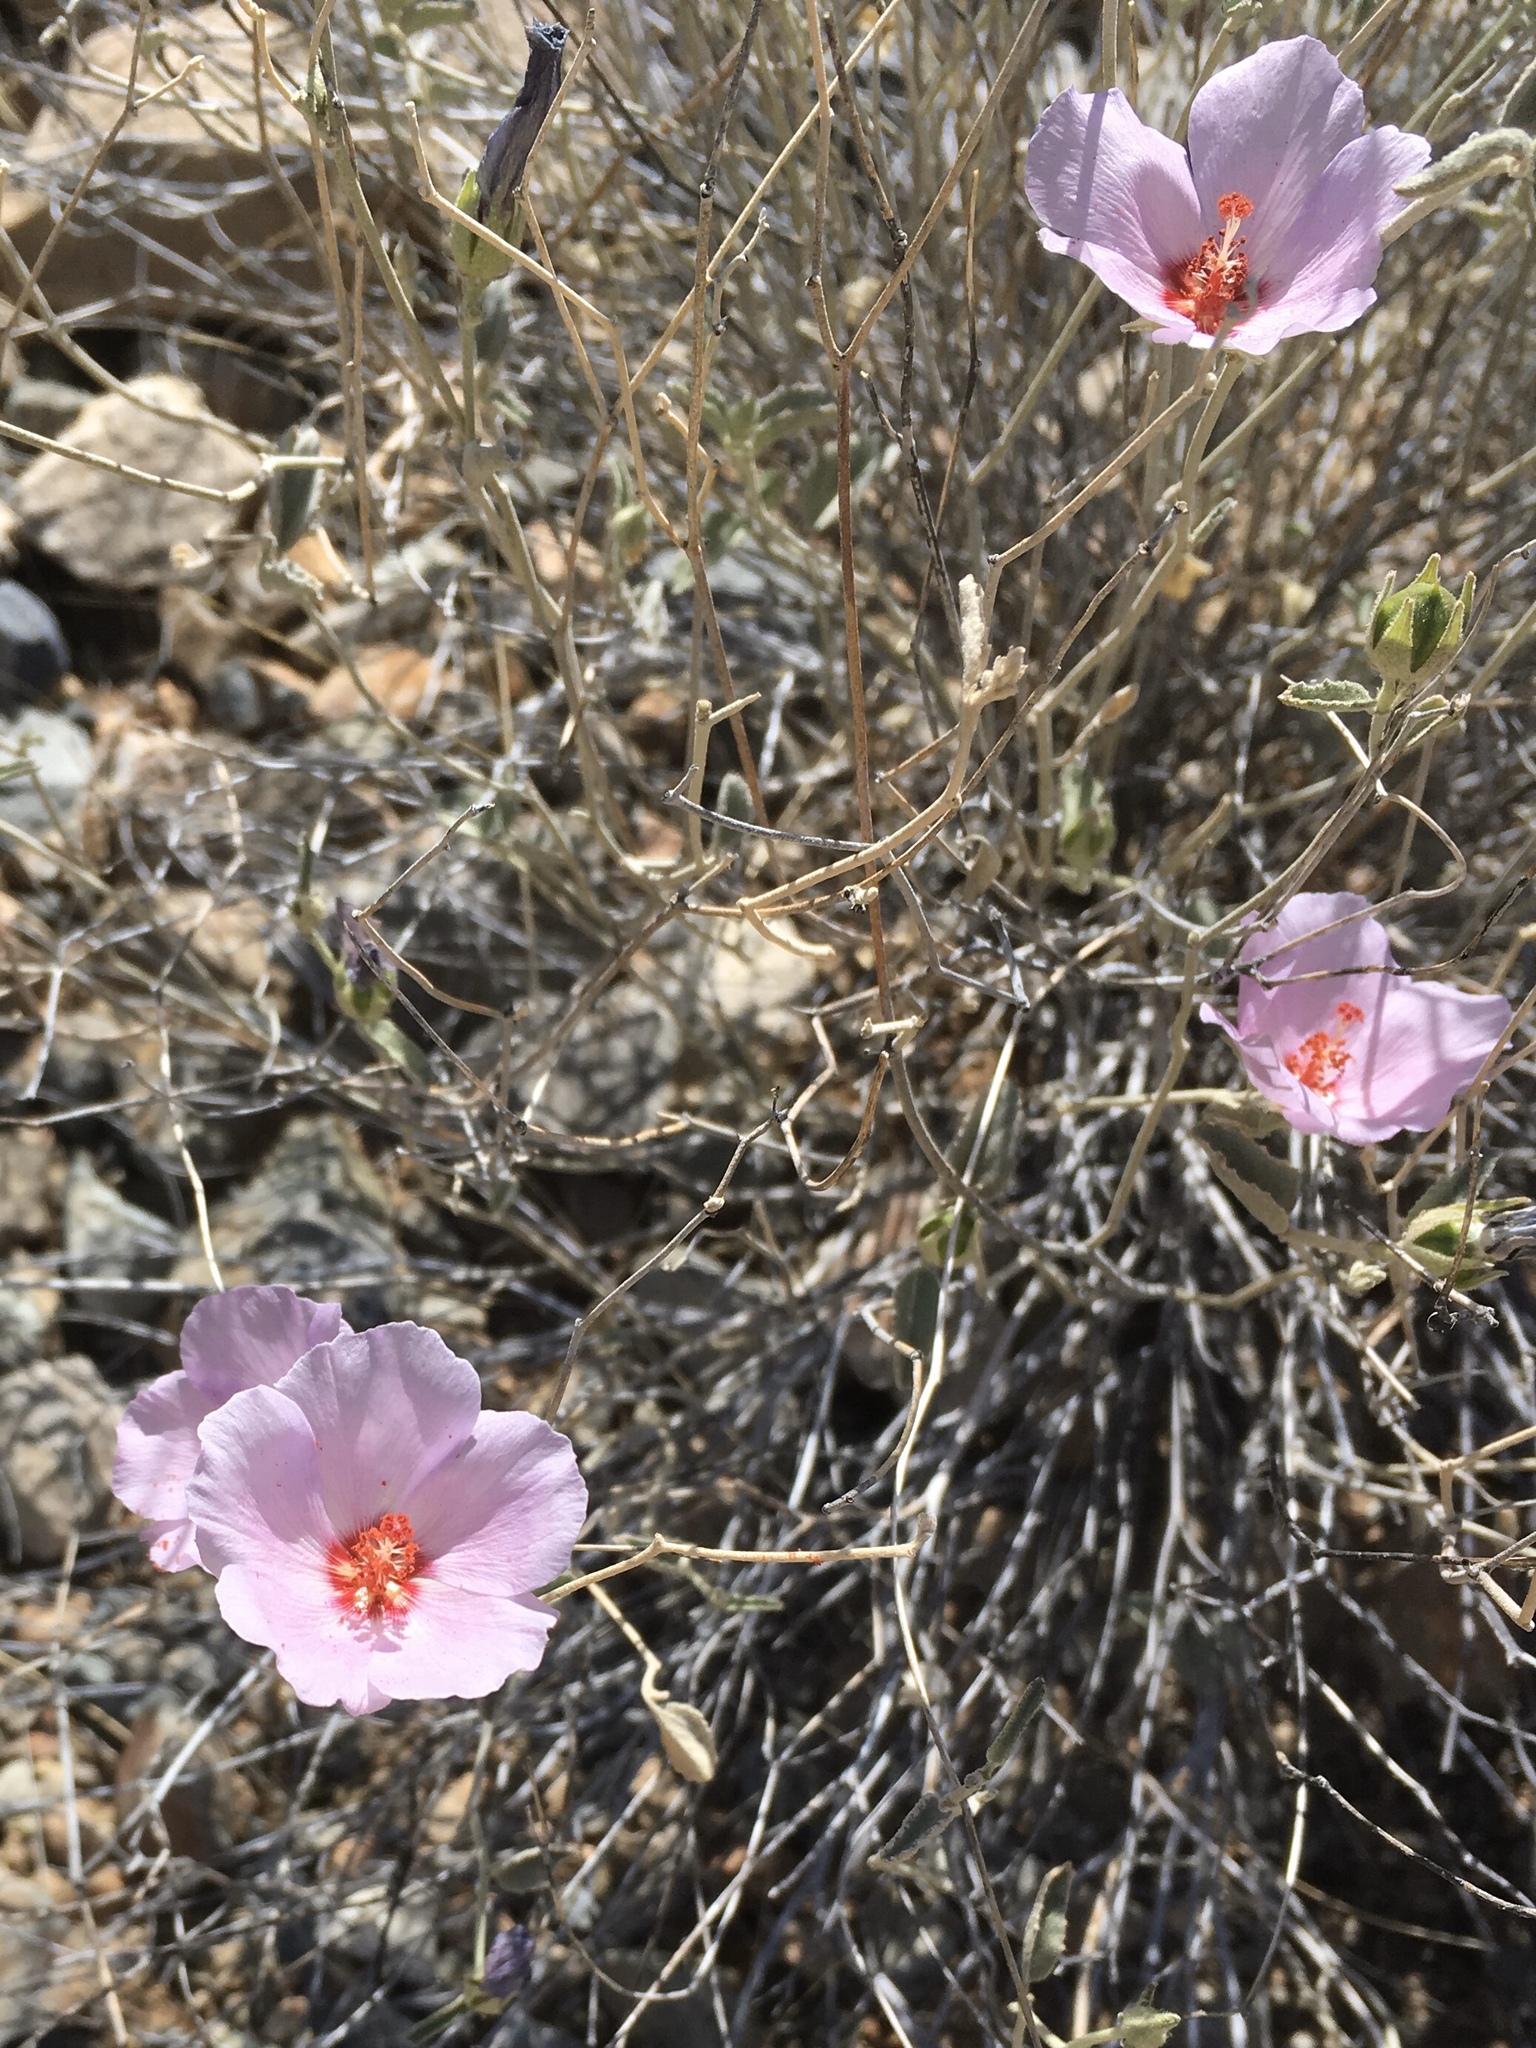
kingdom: Plantae
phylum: Tracheophyta
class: Magnoliopsida
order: Malvales
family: Malvaceae
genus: Hibiscus
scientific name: Hibiscus denudatus
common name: Paleface
